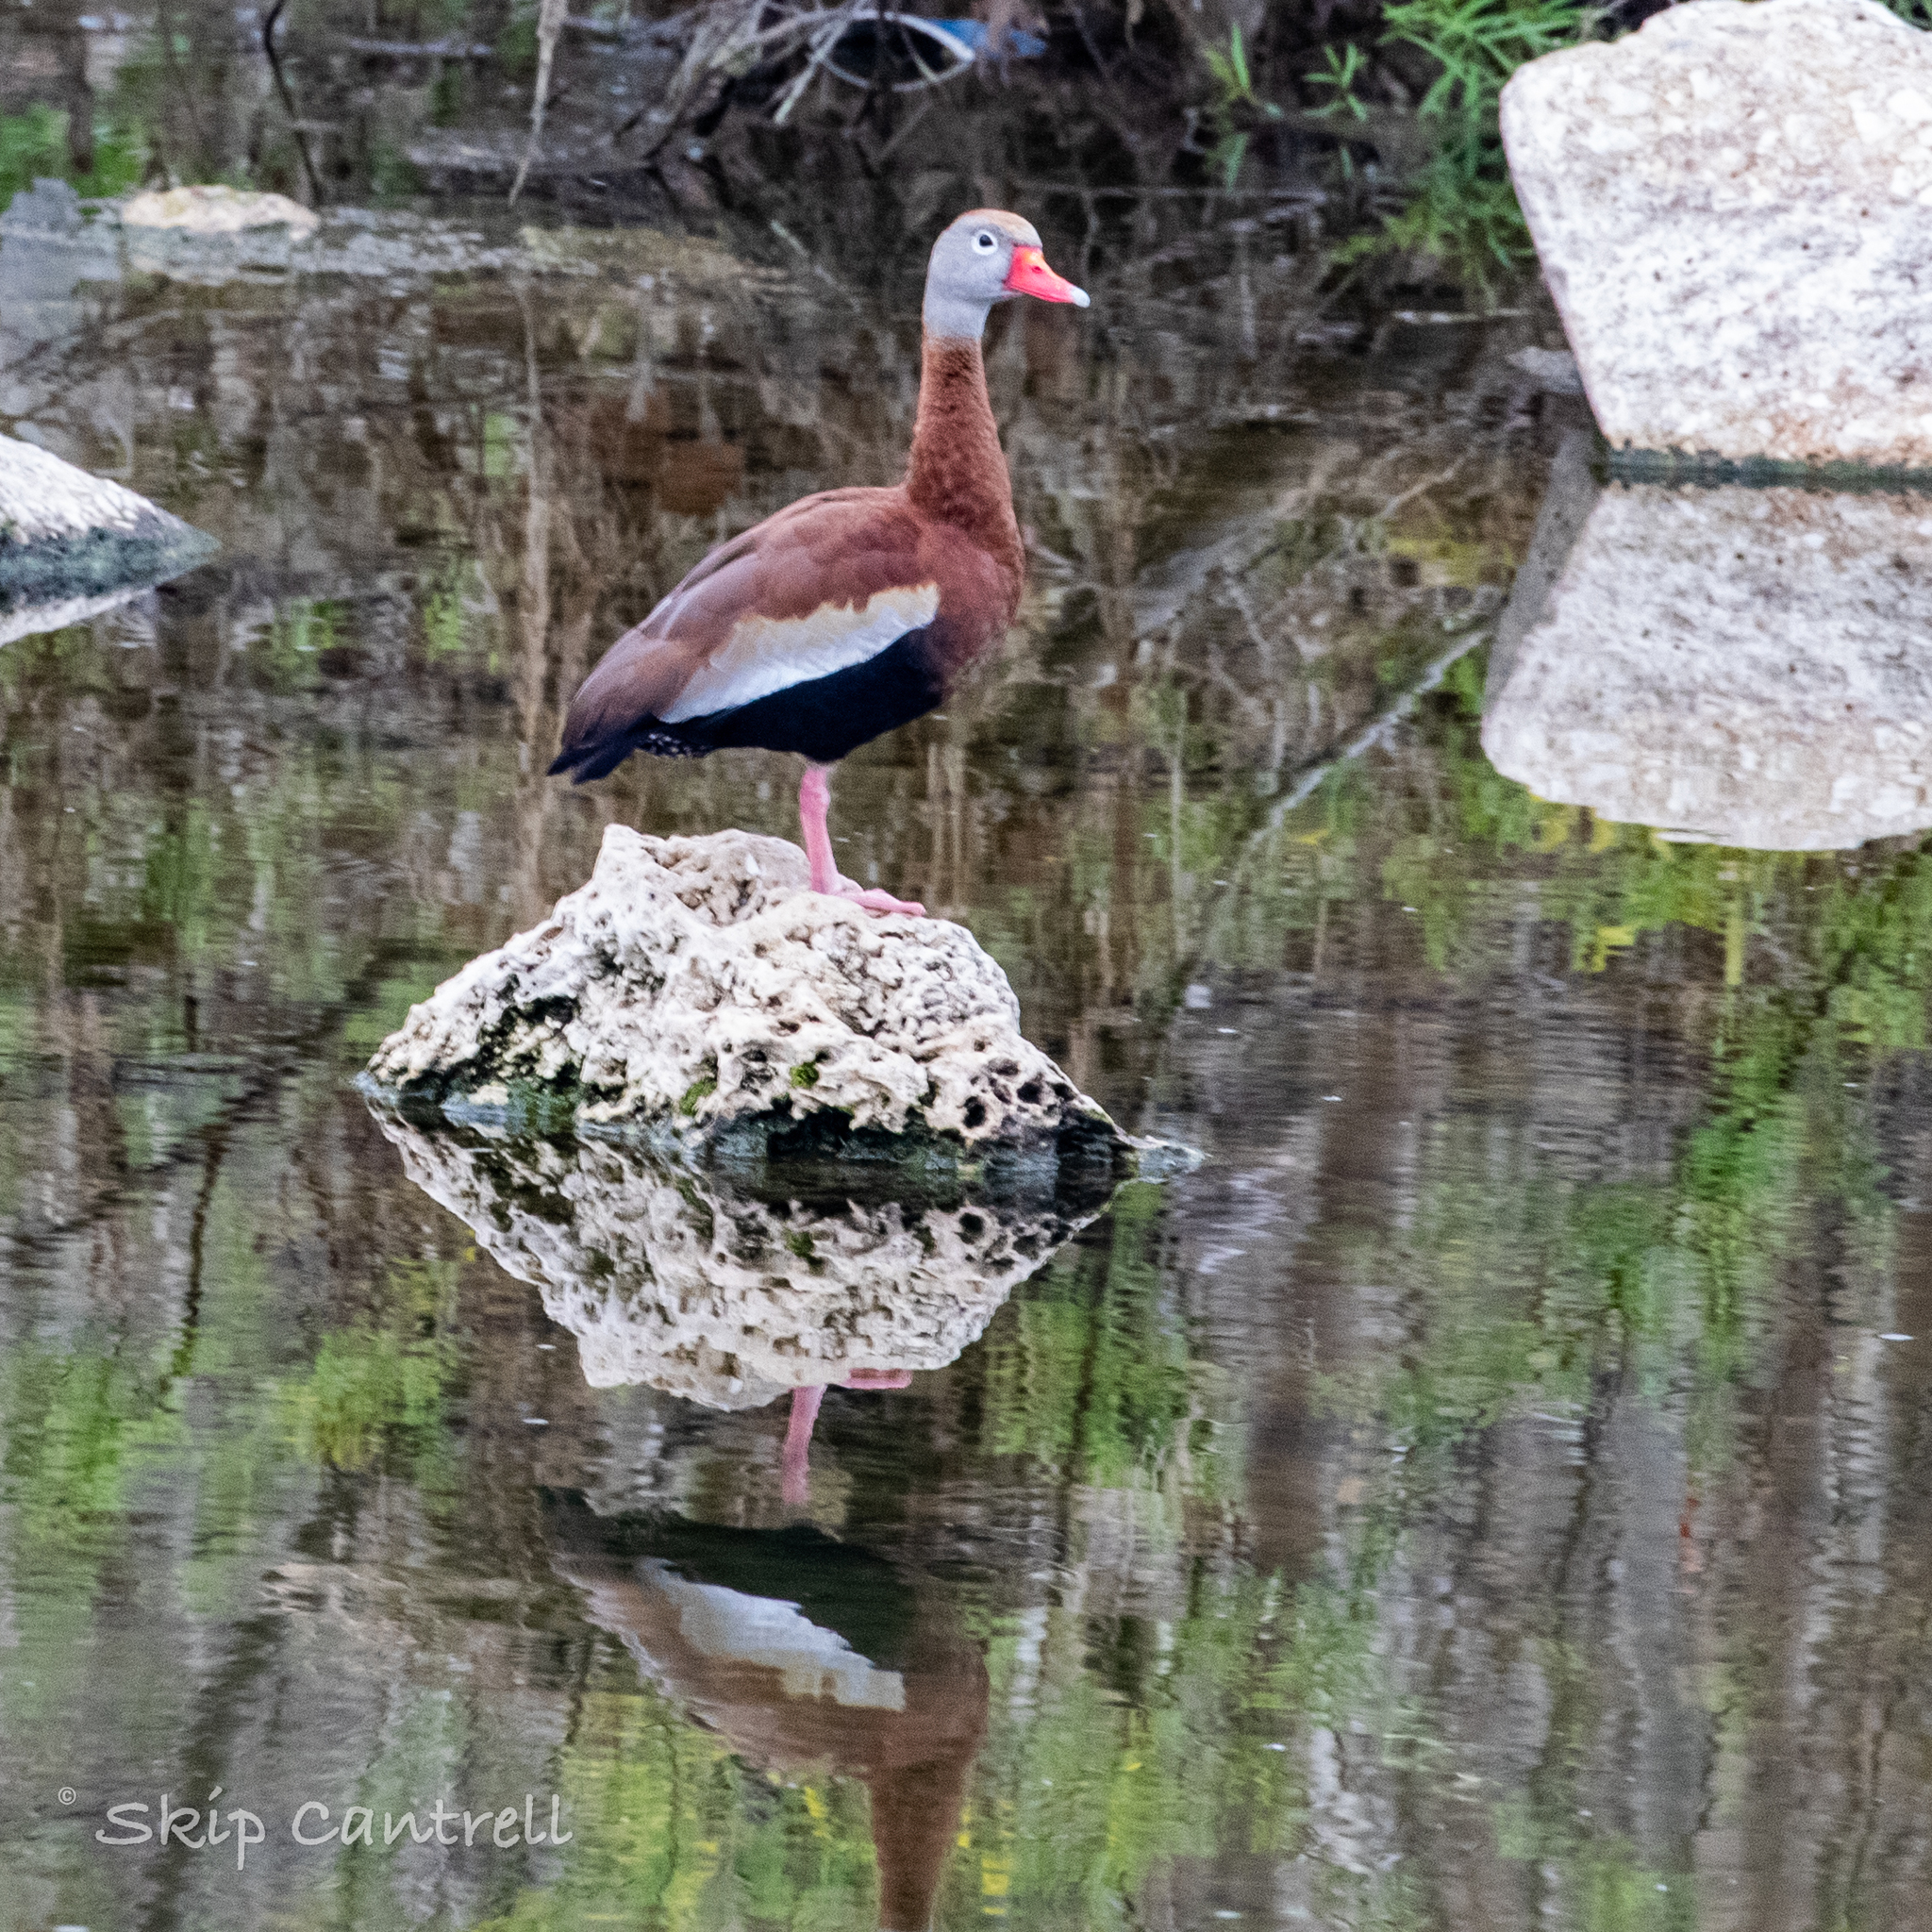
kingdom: Animalia
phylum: Chordata
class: Aves
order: Anseriformes
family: Anatidae
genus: Dendrocygna
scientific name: Dendrocygna autumnalis
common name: Black-bellied whistling duck
